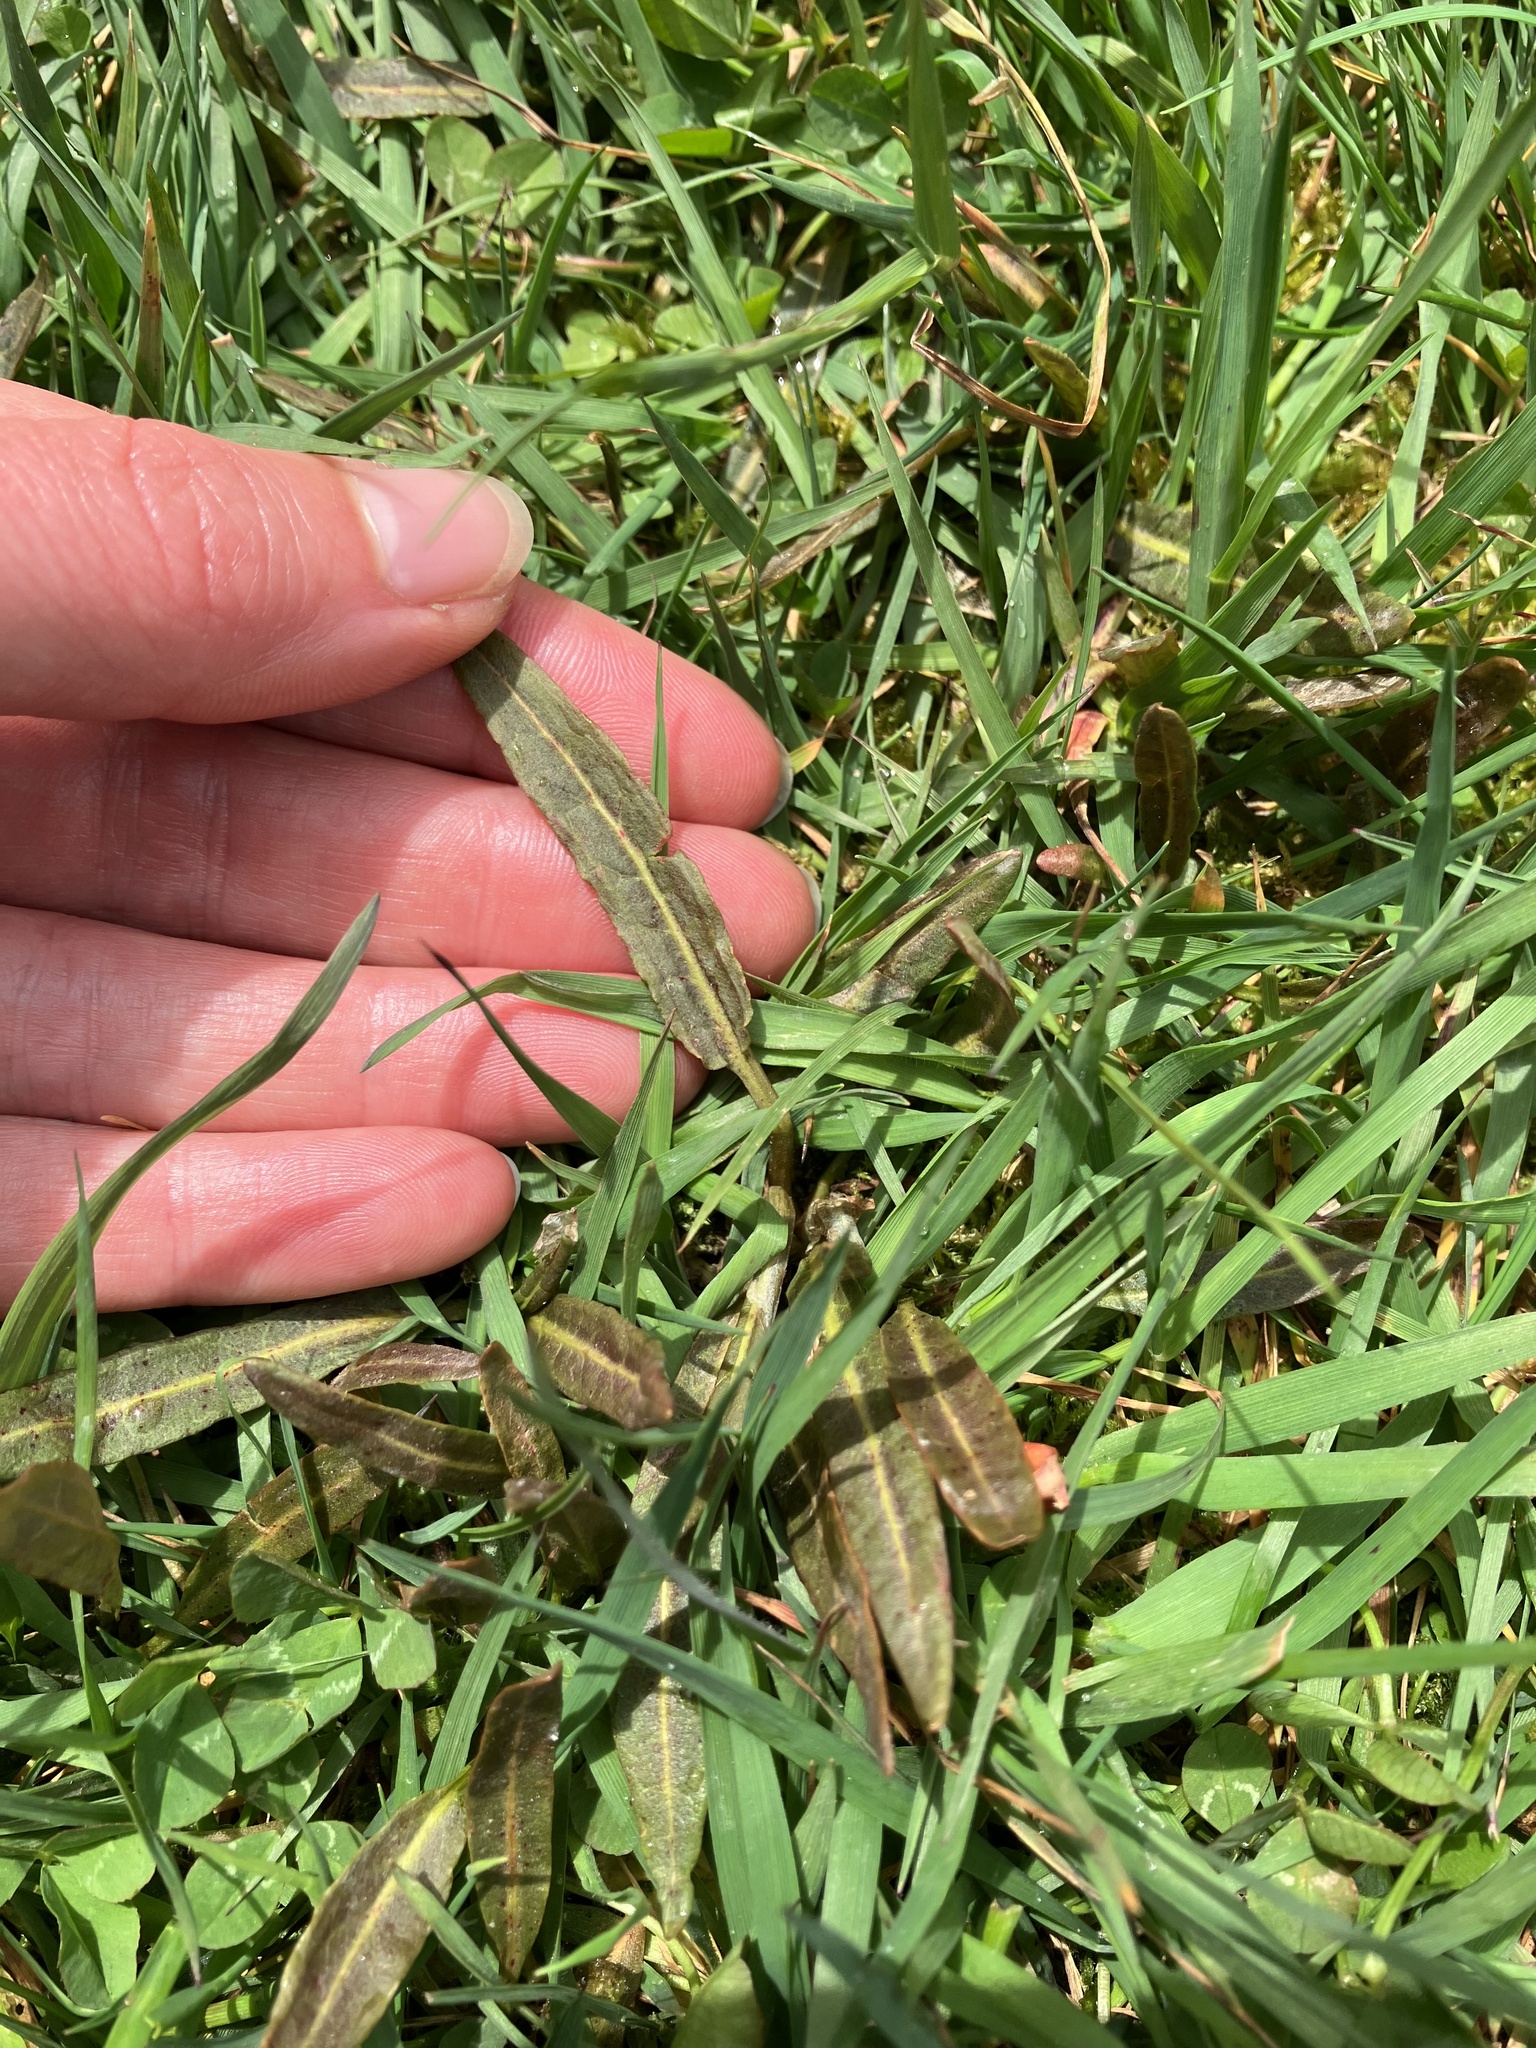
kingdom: Plantae
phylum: Tracheophyta
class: Magnoliopsida
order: Caryophyllales
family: Polygonaceae
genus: Rumex
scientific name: Rumex flexuosus
